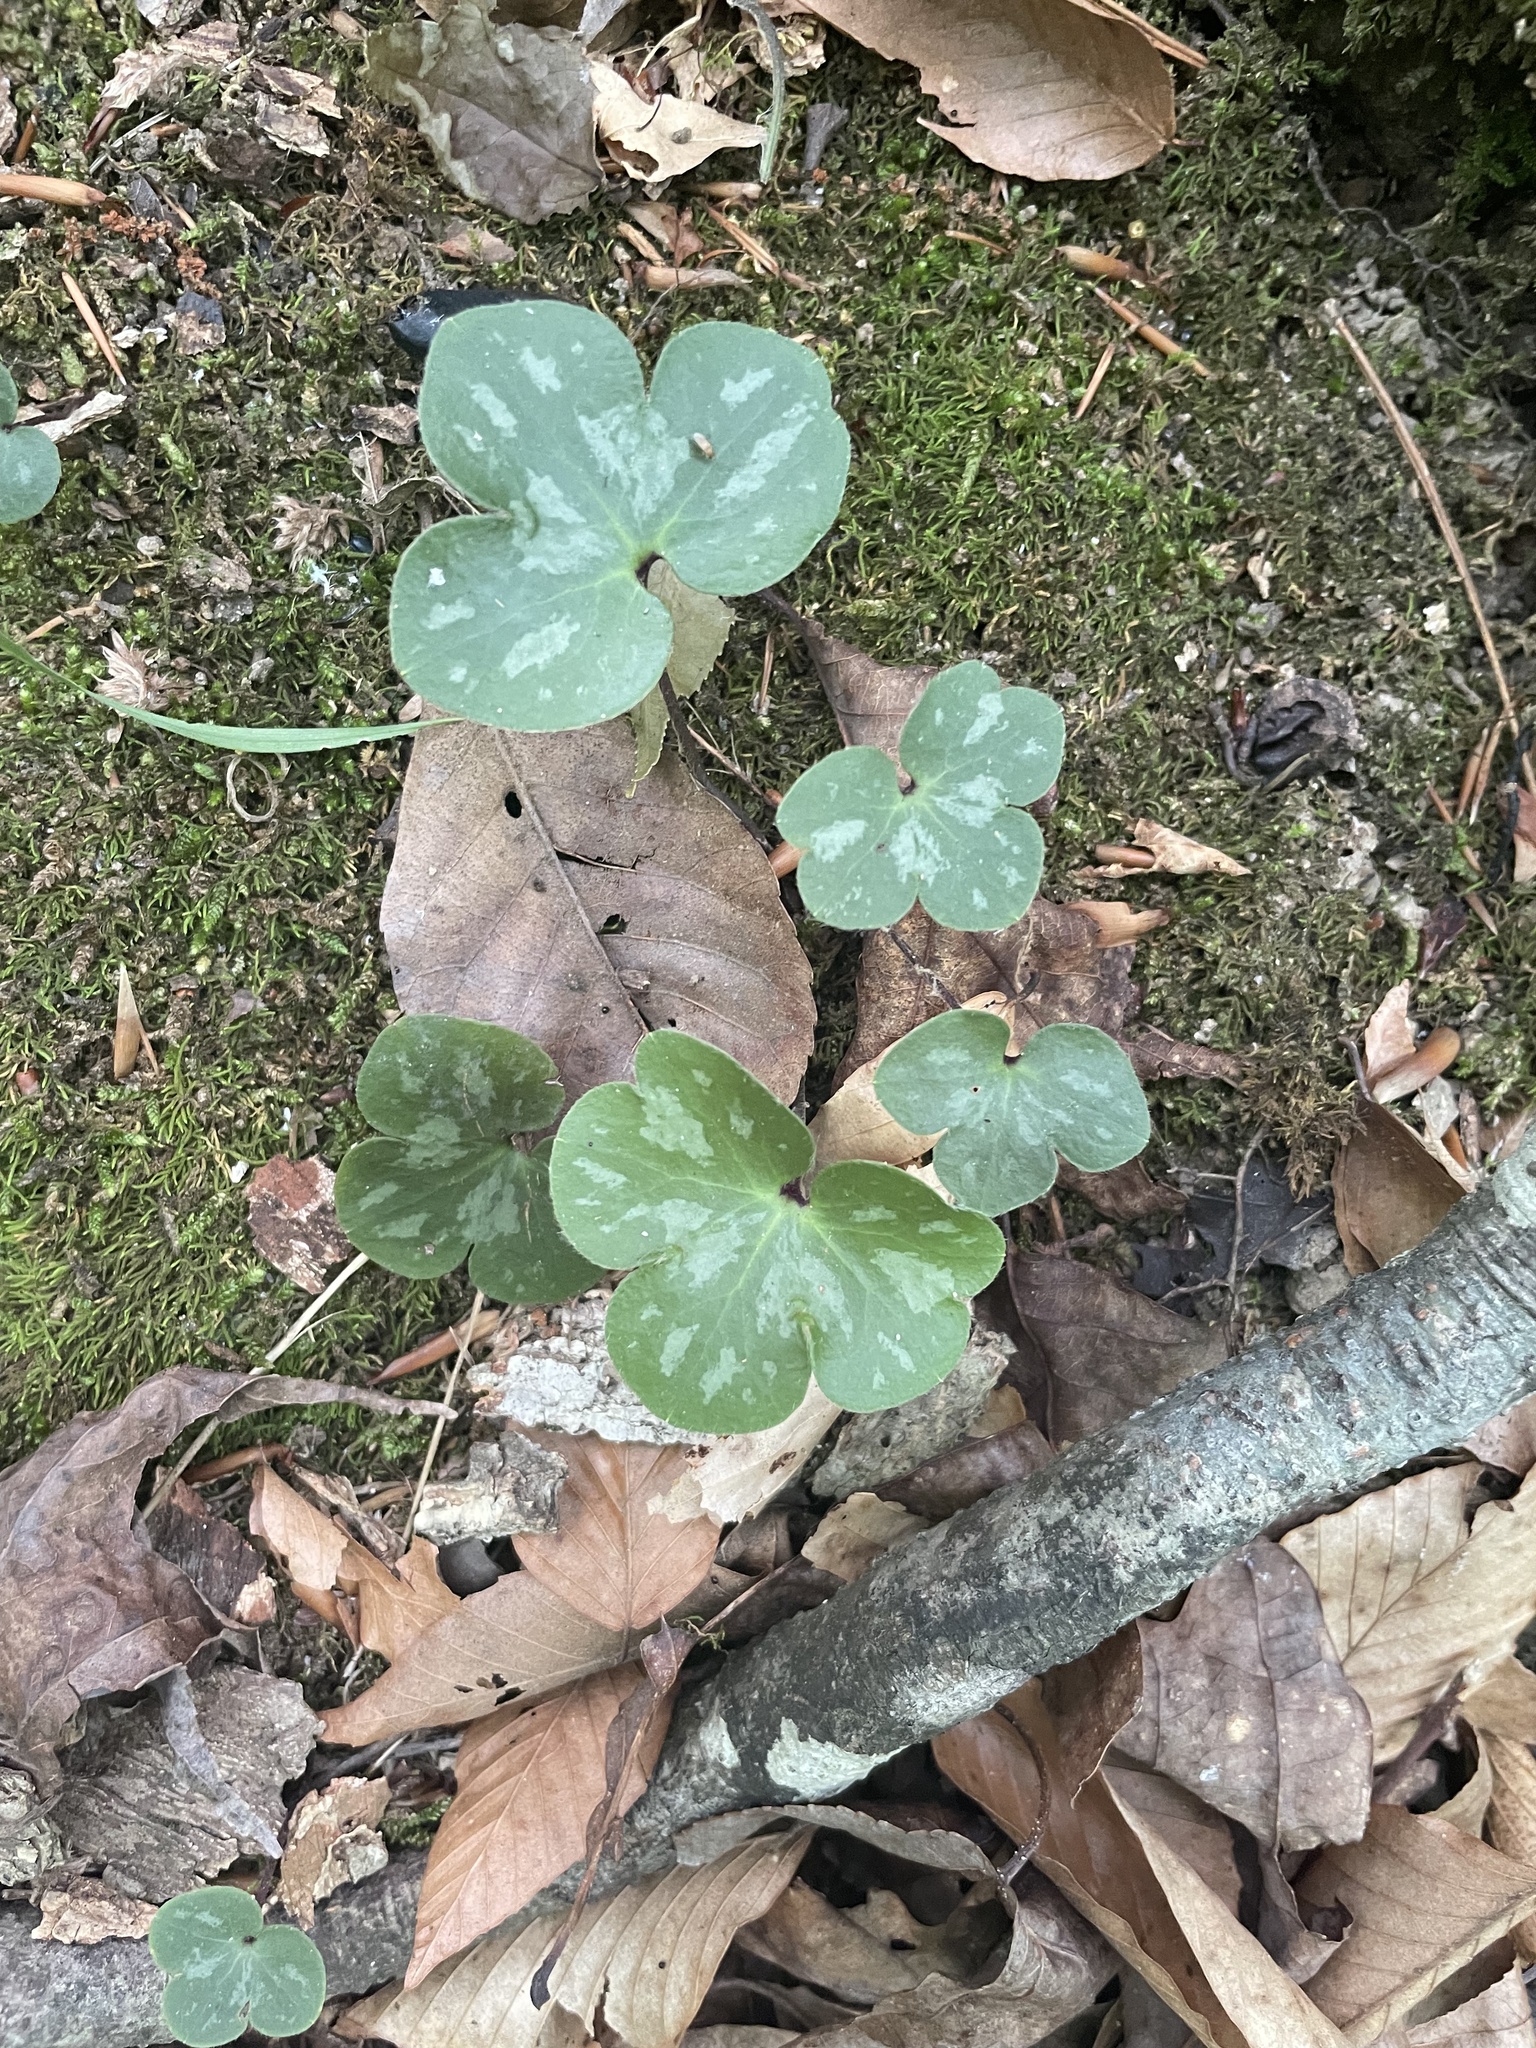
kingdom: Plantae
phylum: Tracheophyta
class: Magnoliopsida
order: Ranunculales
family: Ranunculaceae
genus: Hepatica
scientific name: Hepatica americana
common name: American hepatica
